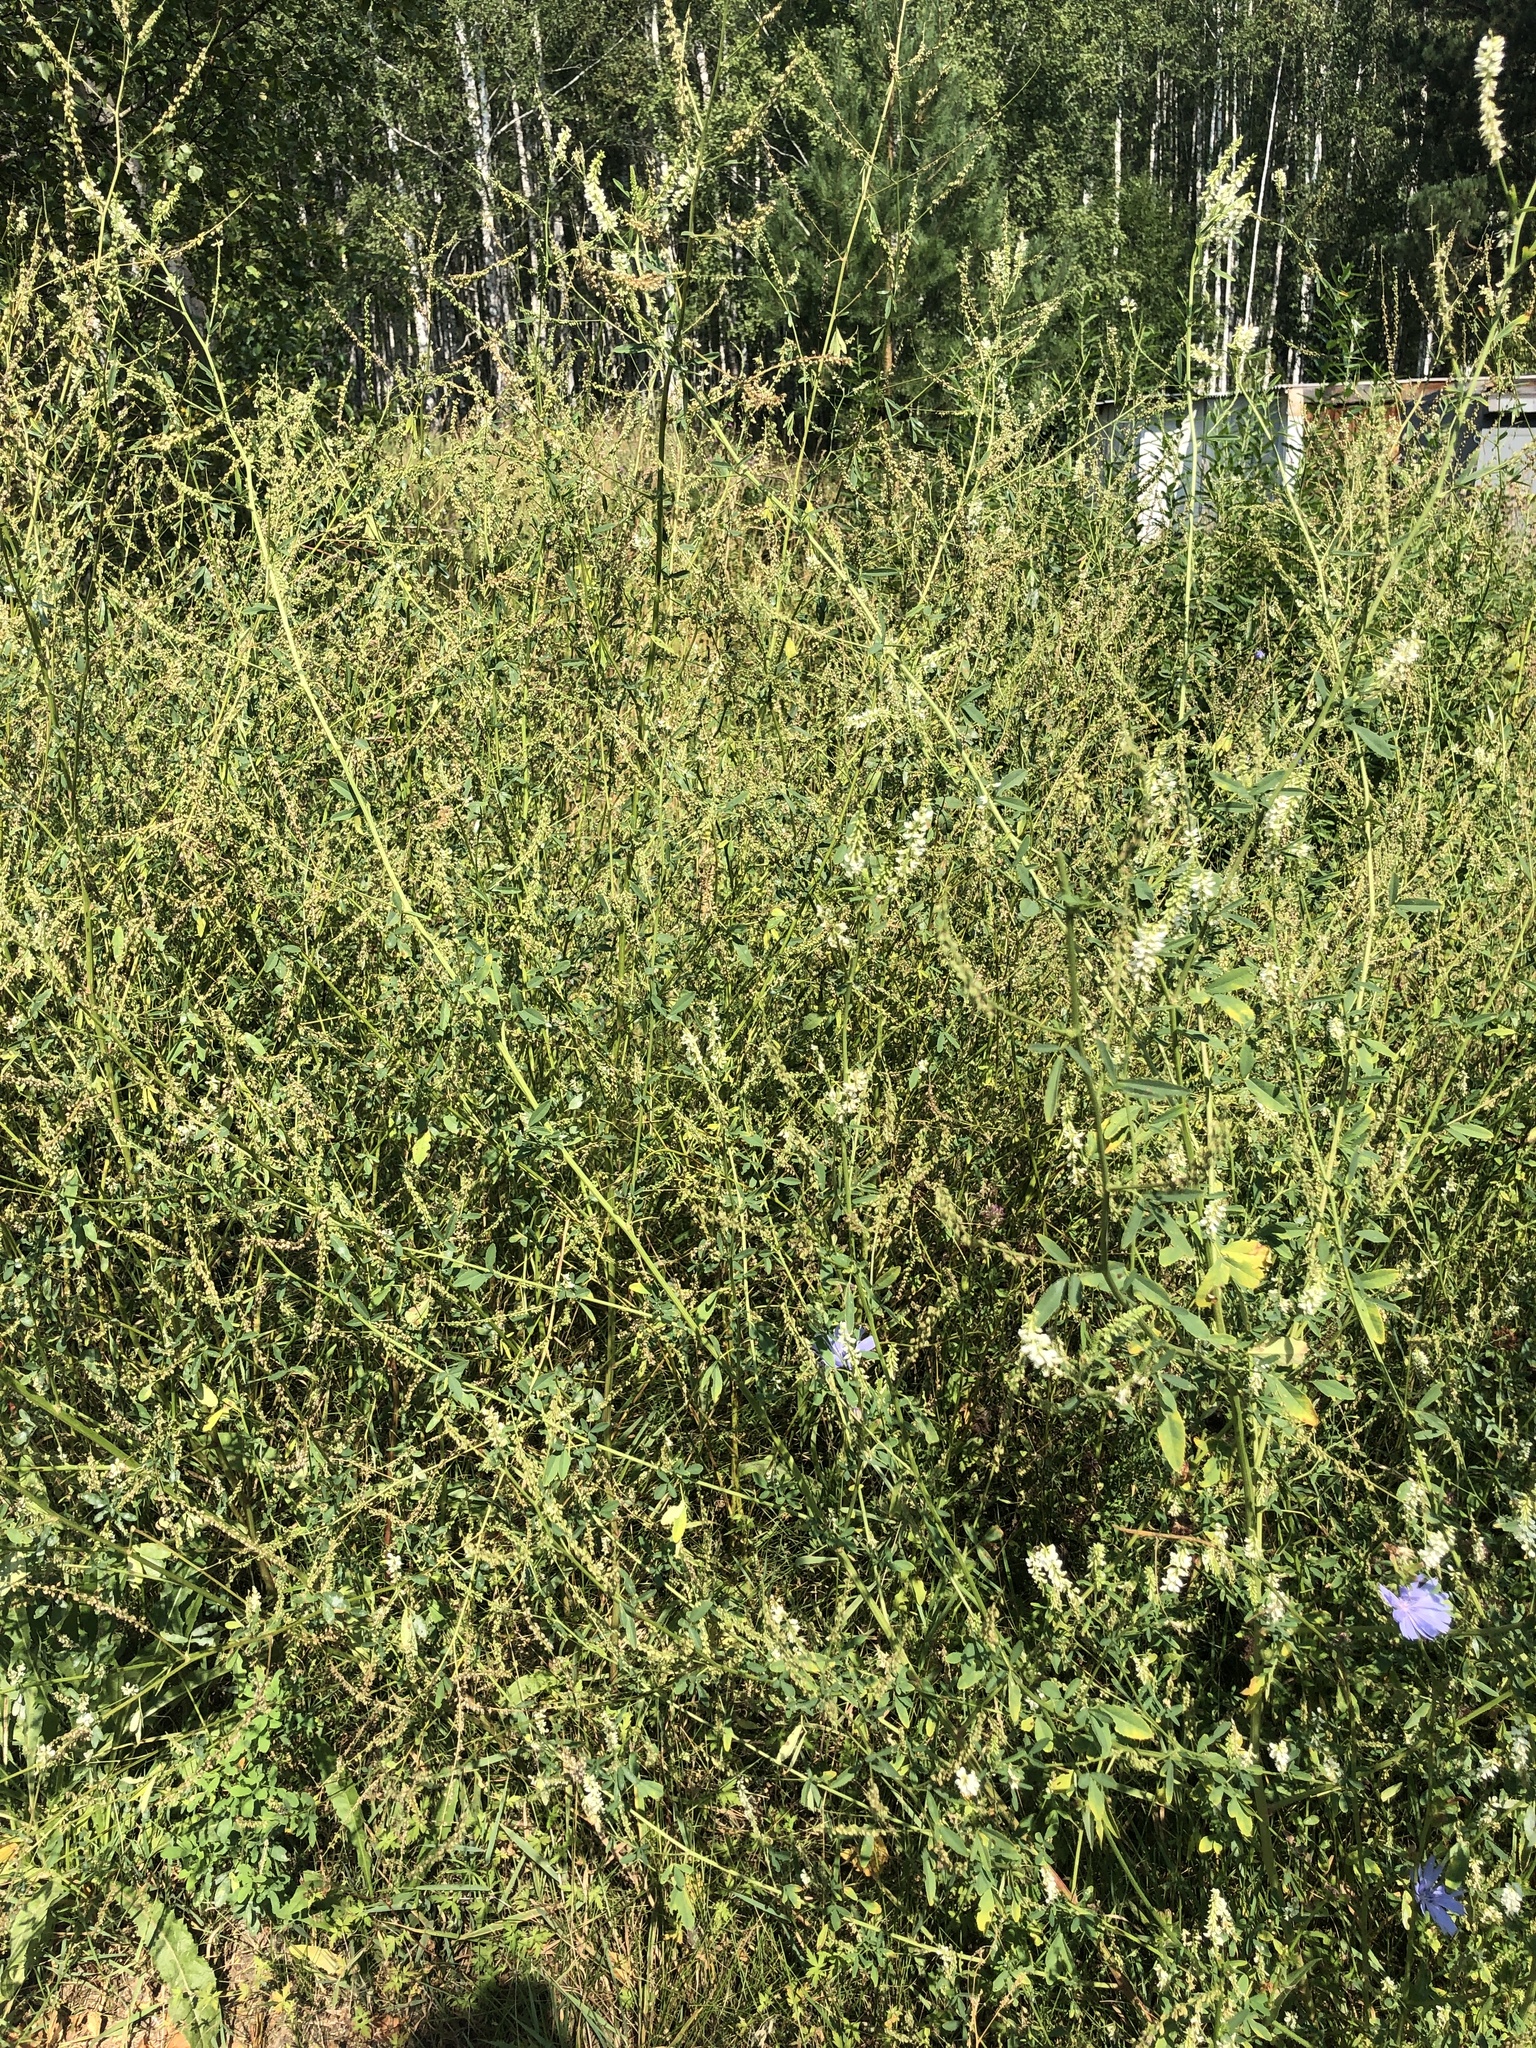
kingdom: Plantae
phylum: Tracheophyta
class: Magnoliopsida
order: Fabales
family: Fabaceae
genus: Melilotus
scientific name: Melilotus albus
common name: White melilot
